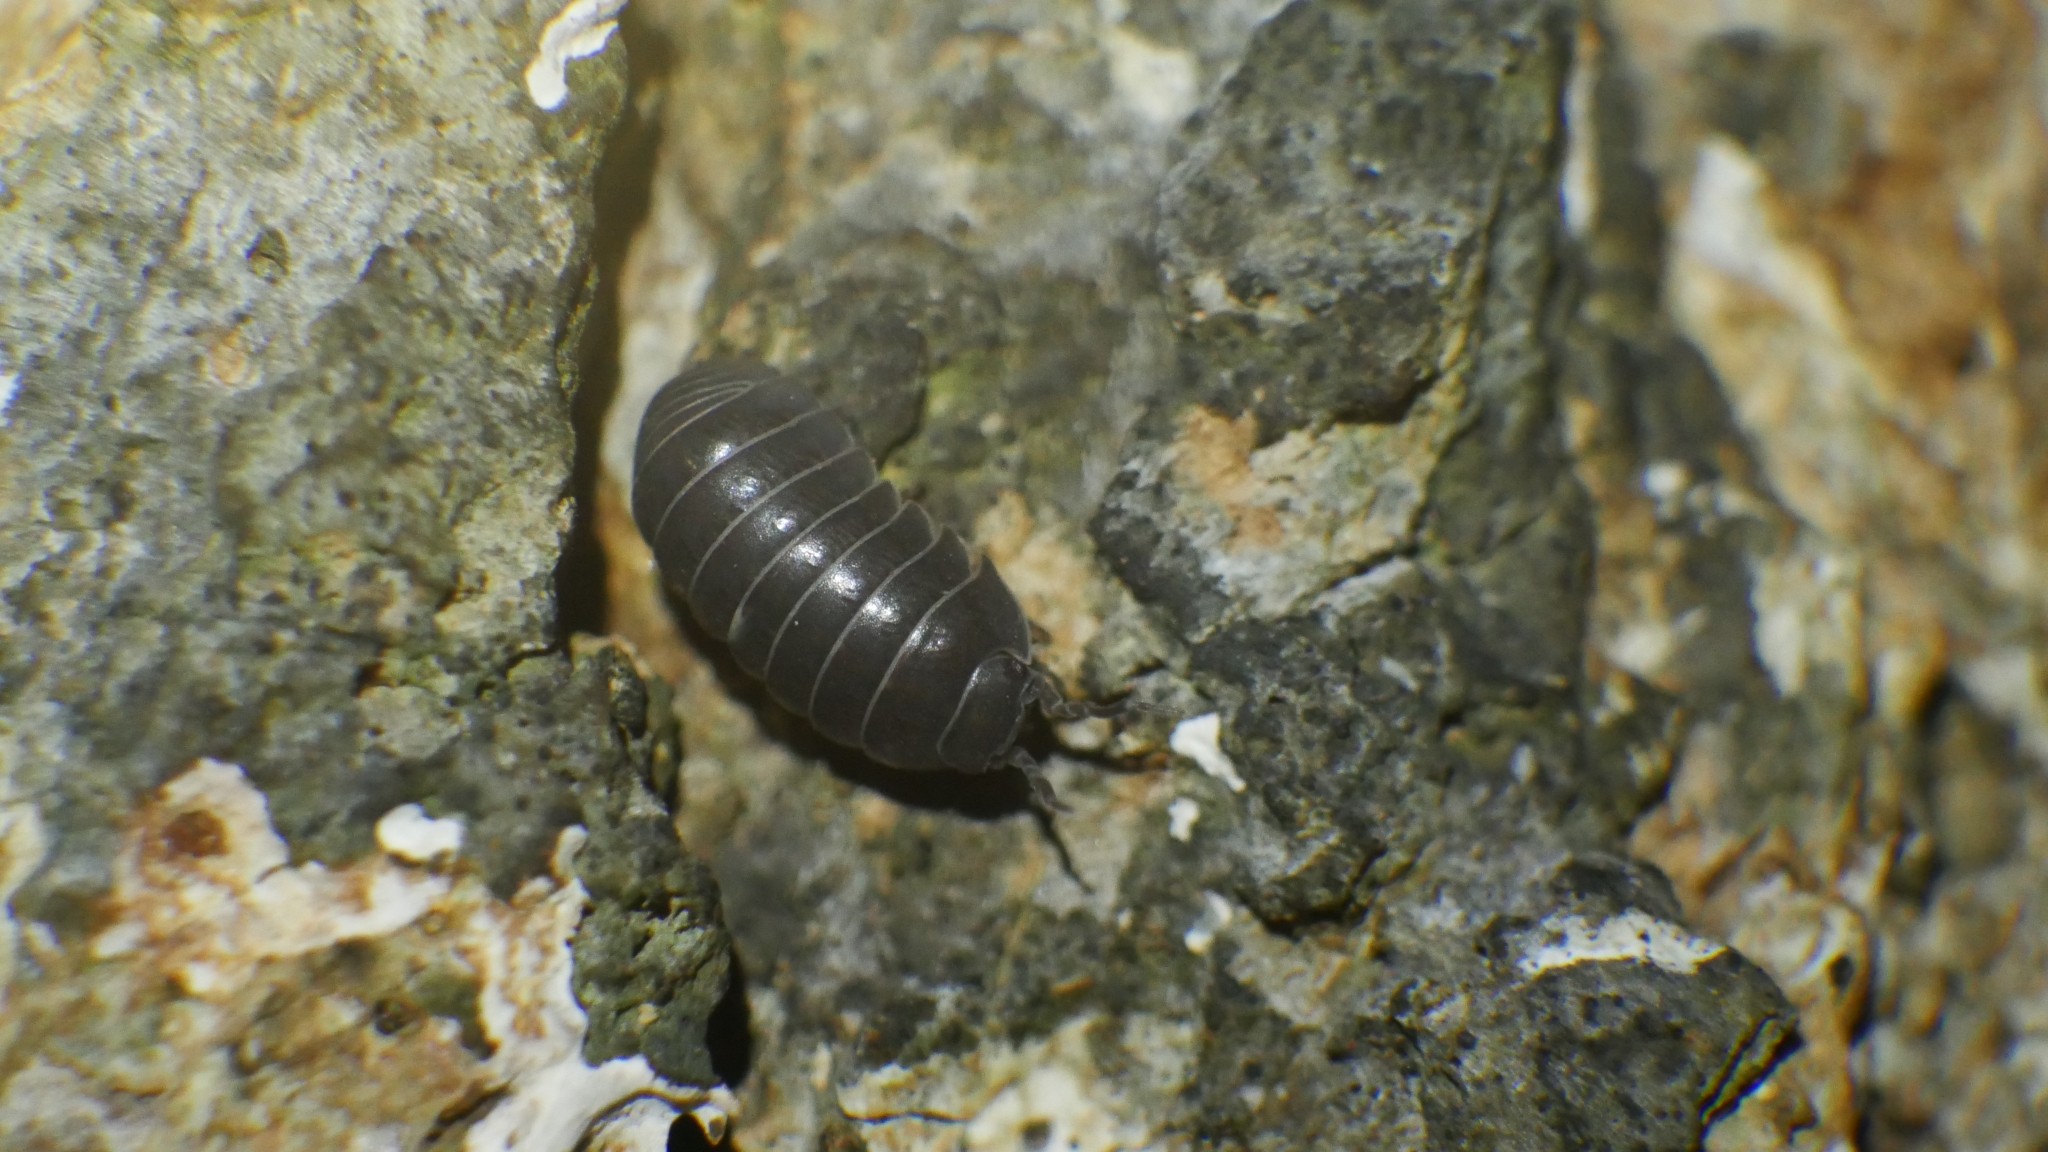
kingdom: Animalia
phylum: Arthropoda
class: Malacostraca
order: Isopoda
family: Armadillidiidae
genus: Armadillidium
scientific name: Armadillidium vulgare
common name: Common pill woodlouse
